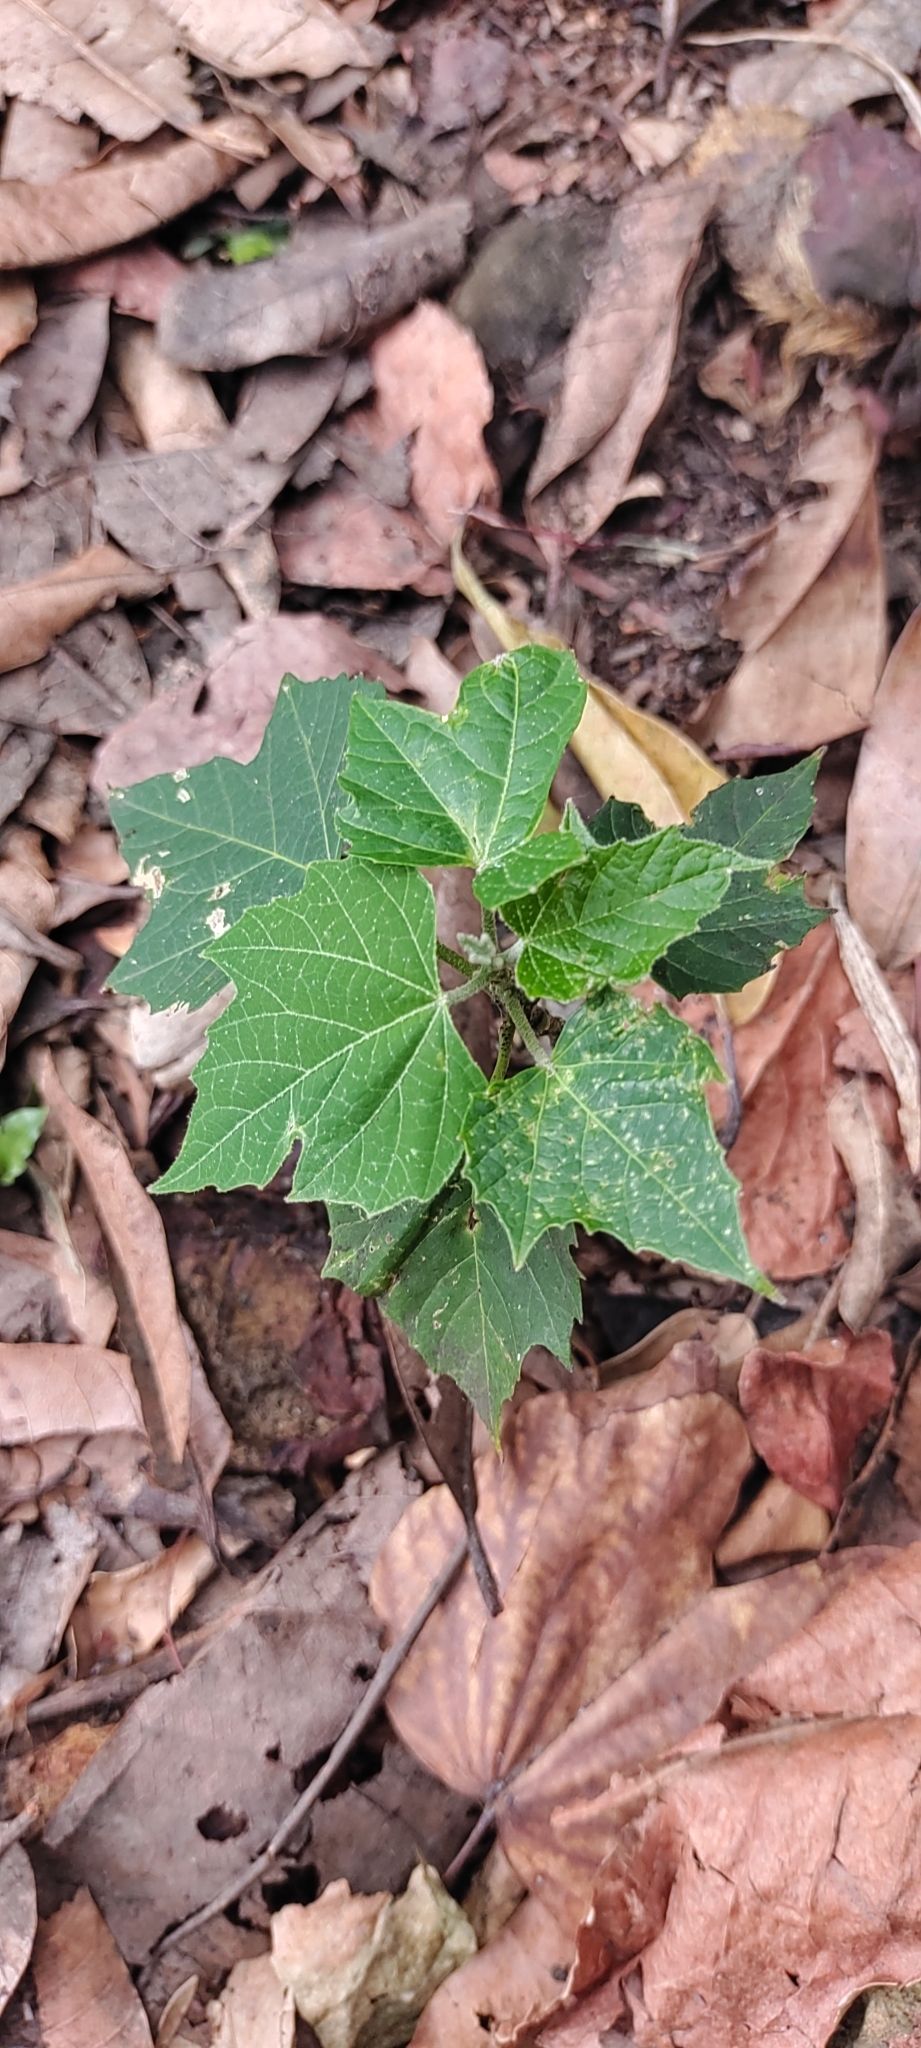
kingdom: Plantae
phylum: Tracheophyta
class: Magnoliopsida
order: Malpighiales
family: Euphorbiaceae
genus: Melanolepis
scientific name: Melanolepis multiglandulosa
